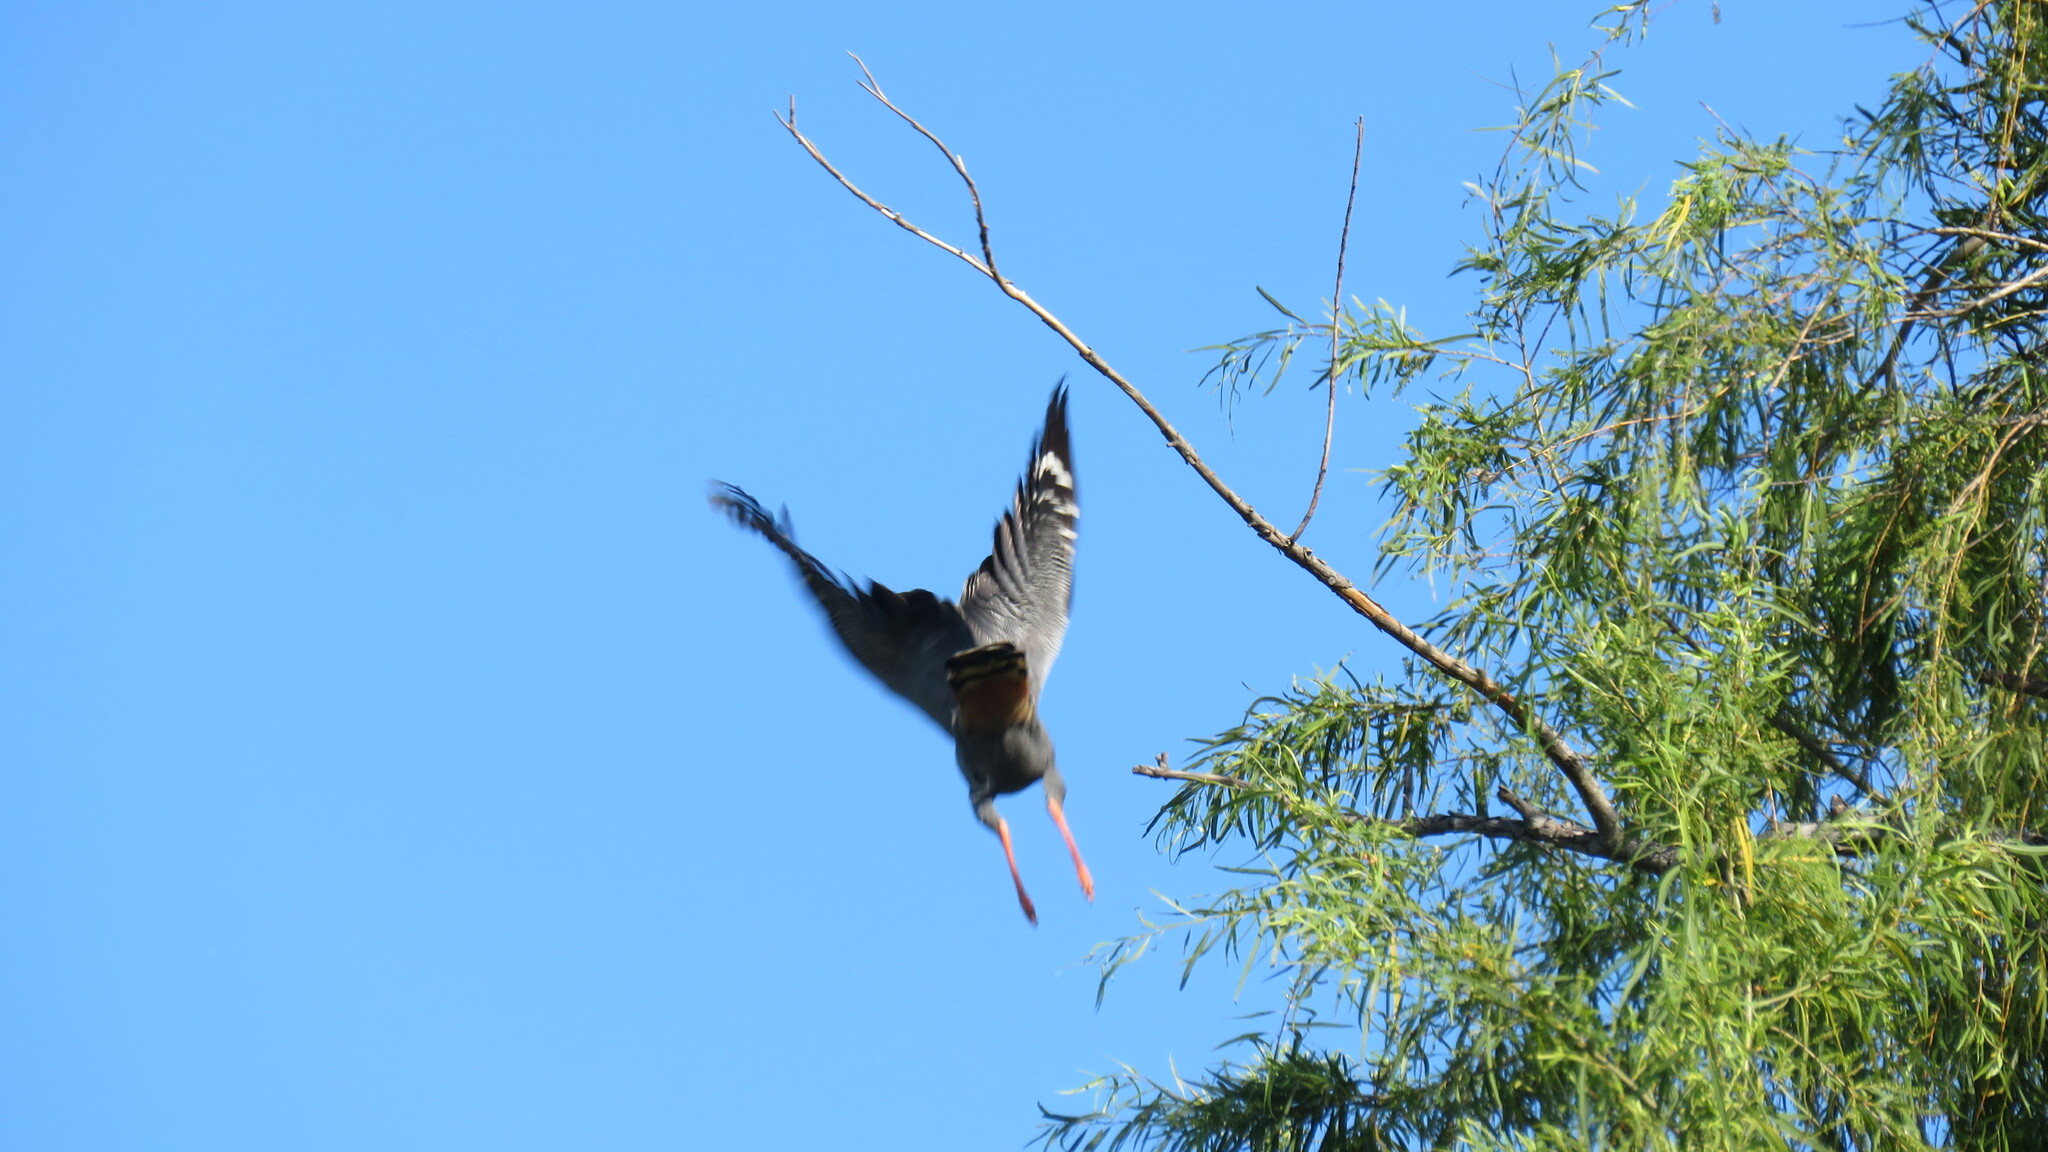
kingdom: Animalia
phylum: Chordata
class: Aves
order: Accipitriformes
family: Accipitridae
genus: Geranospiza
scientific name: Geranospiza caerulescens
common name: Crane hawk
